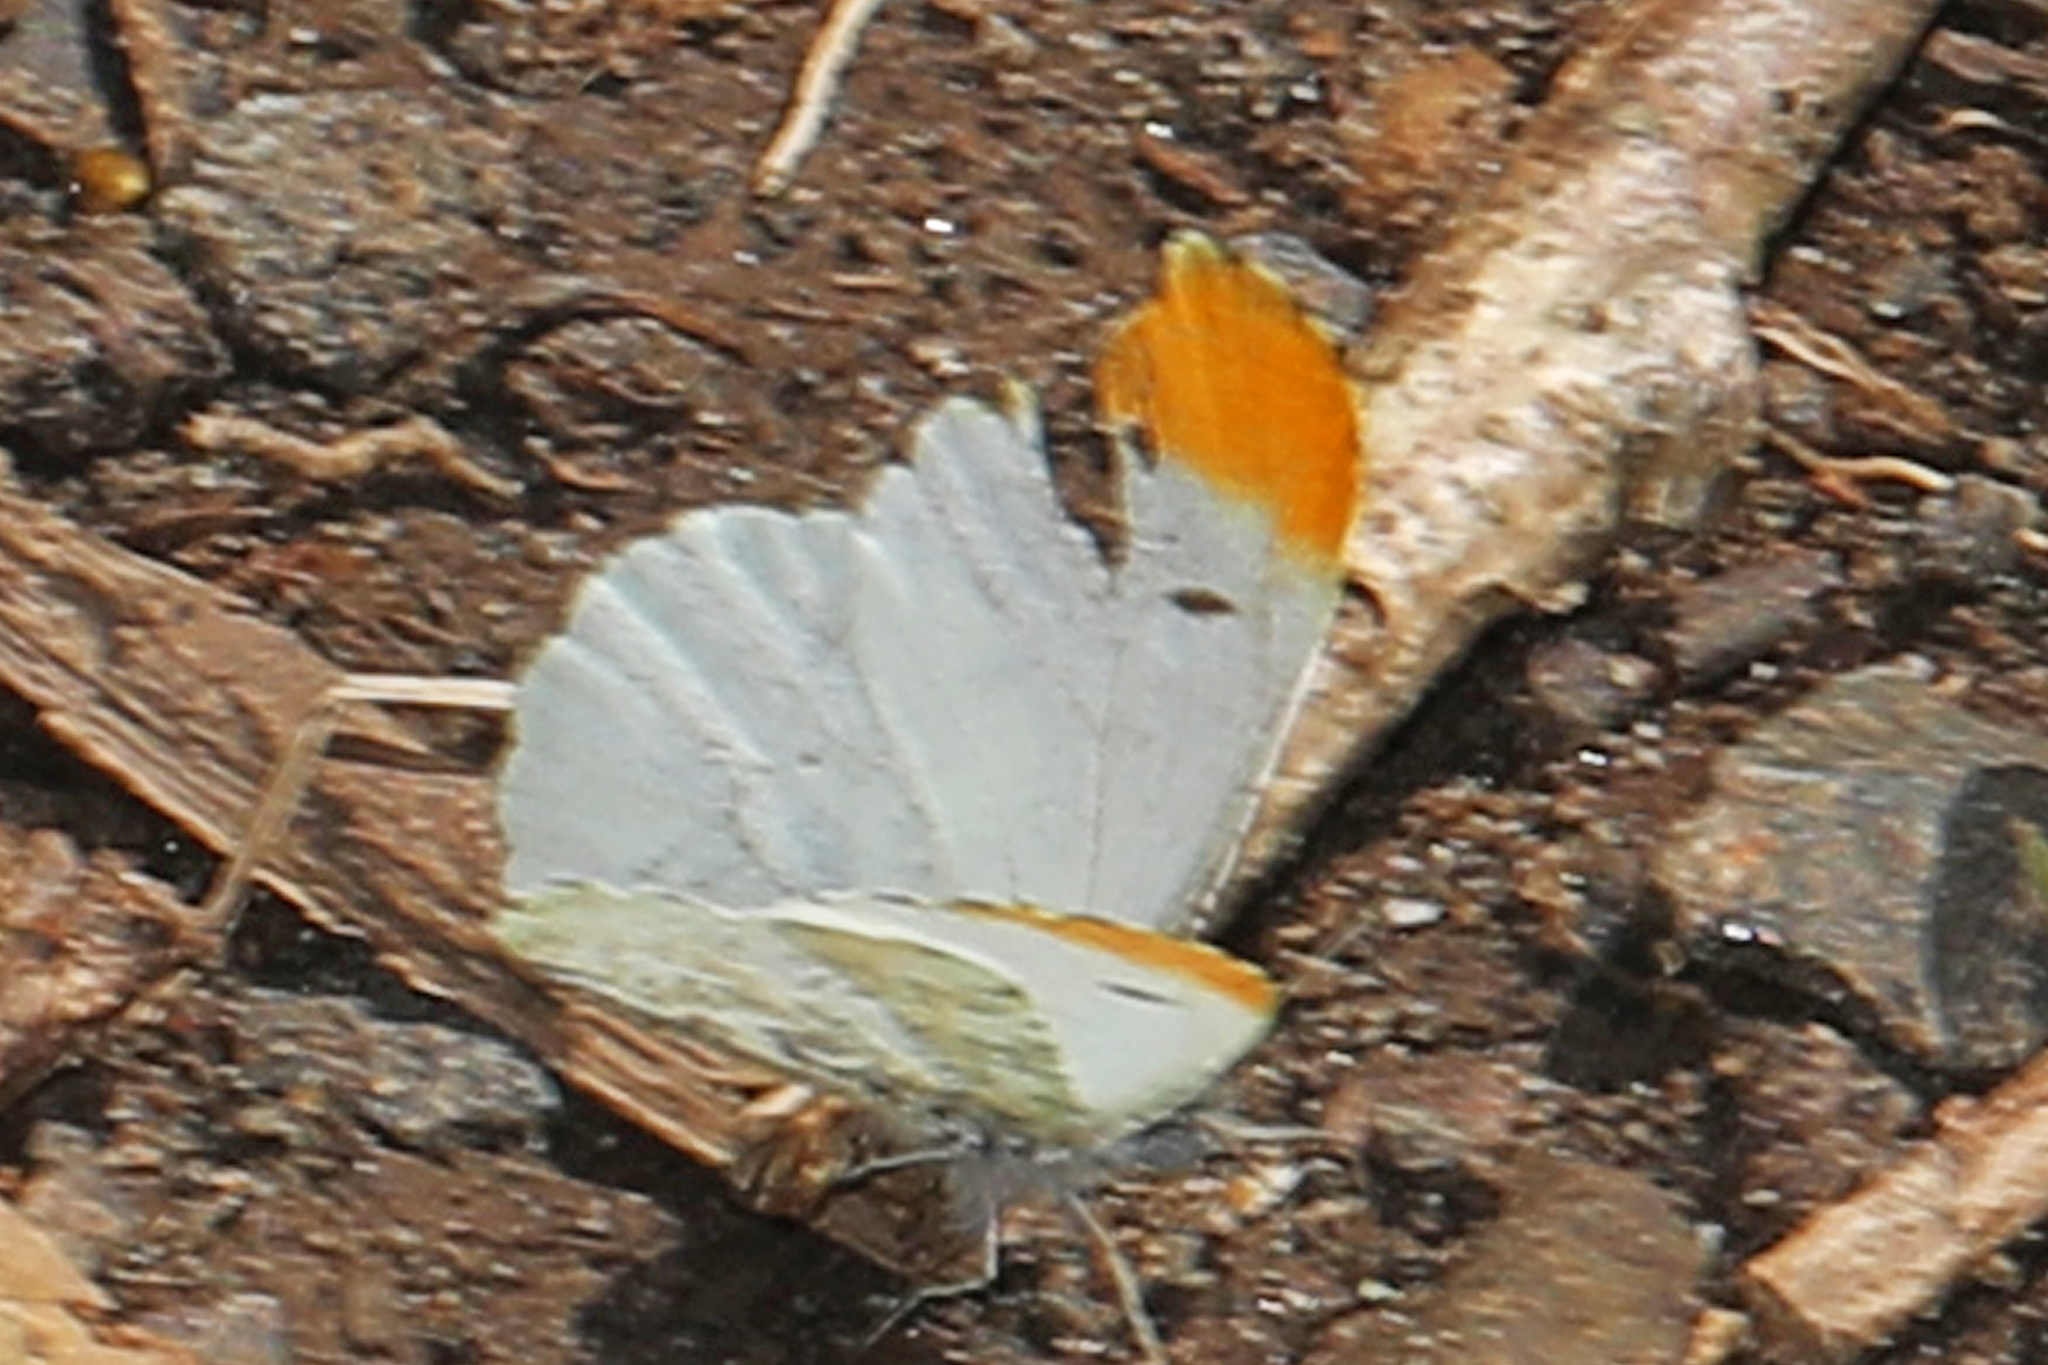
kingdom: Animalia
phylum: Arthropoda
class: Insecta
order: Lepidoptera
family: Pieridae
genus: Anthocharis
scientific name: Anthocharis midea
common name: Falcate orangetip
